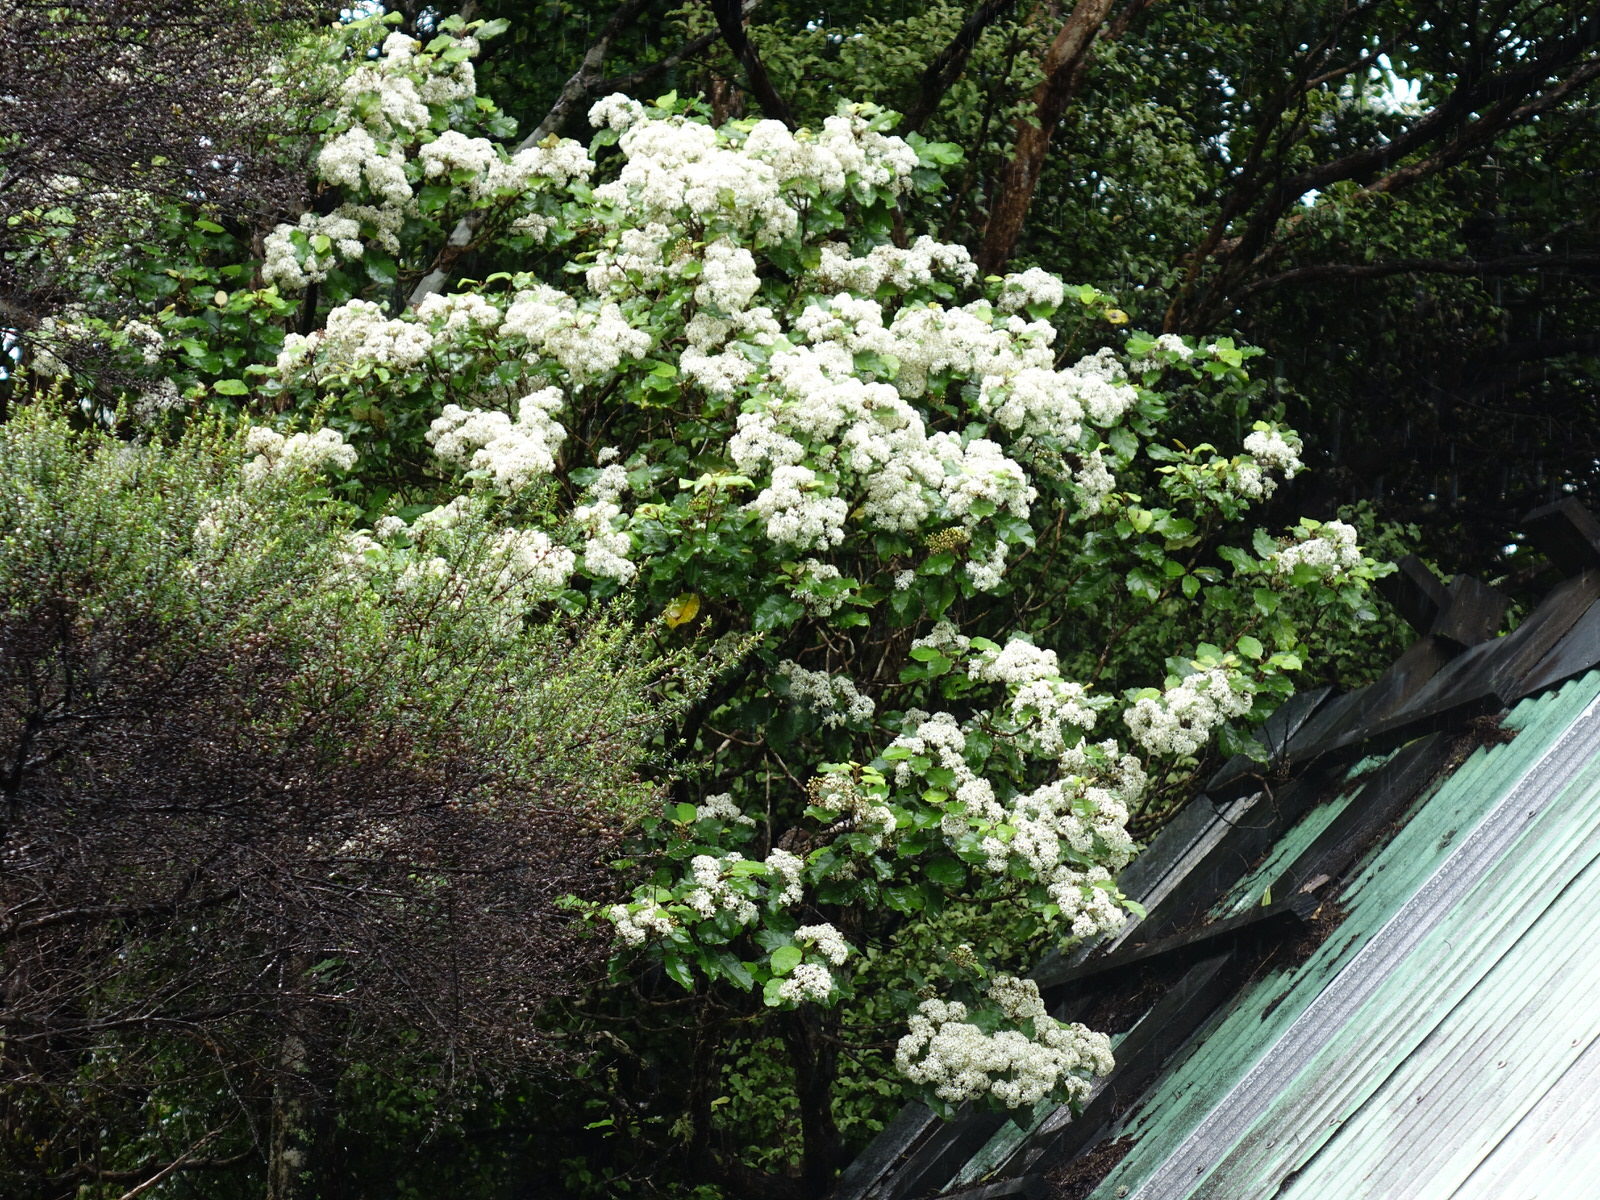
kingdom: Plantae
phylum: Tracheophyta
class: Magnoliopsida
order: Asterales
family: Asteraceae
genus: Olearia
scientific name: Olearia rani
